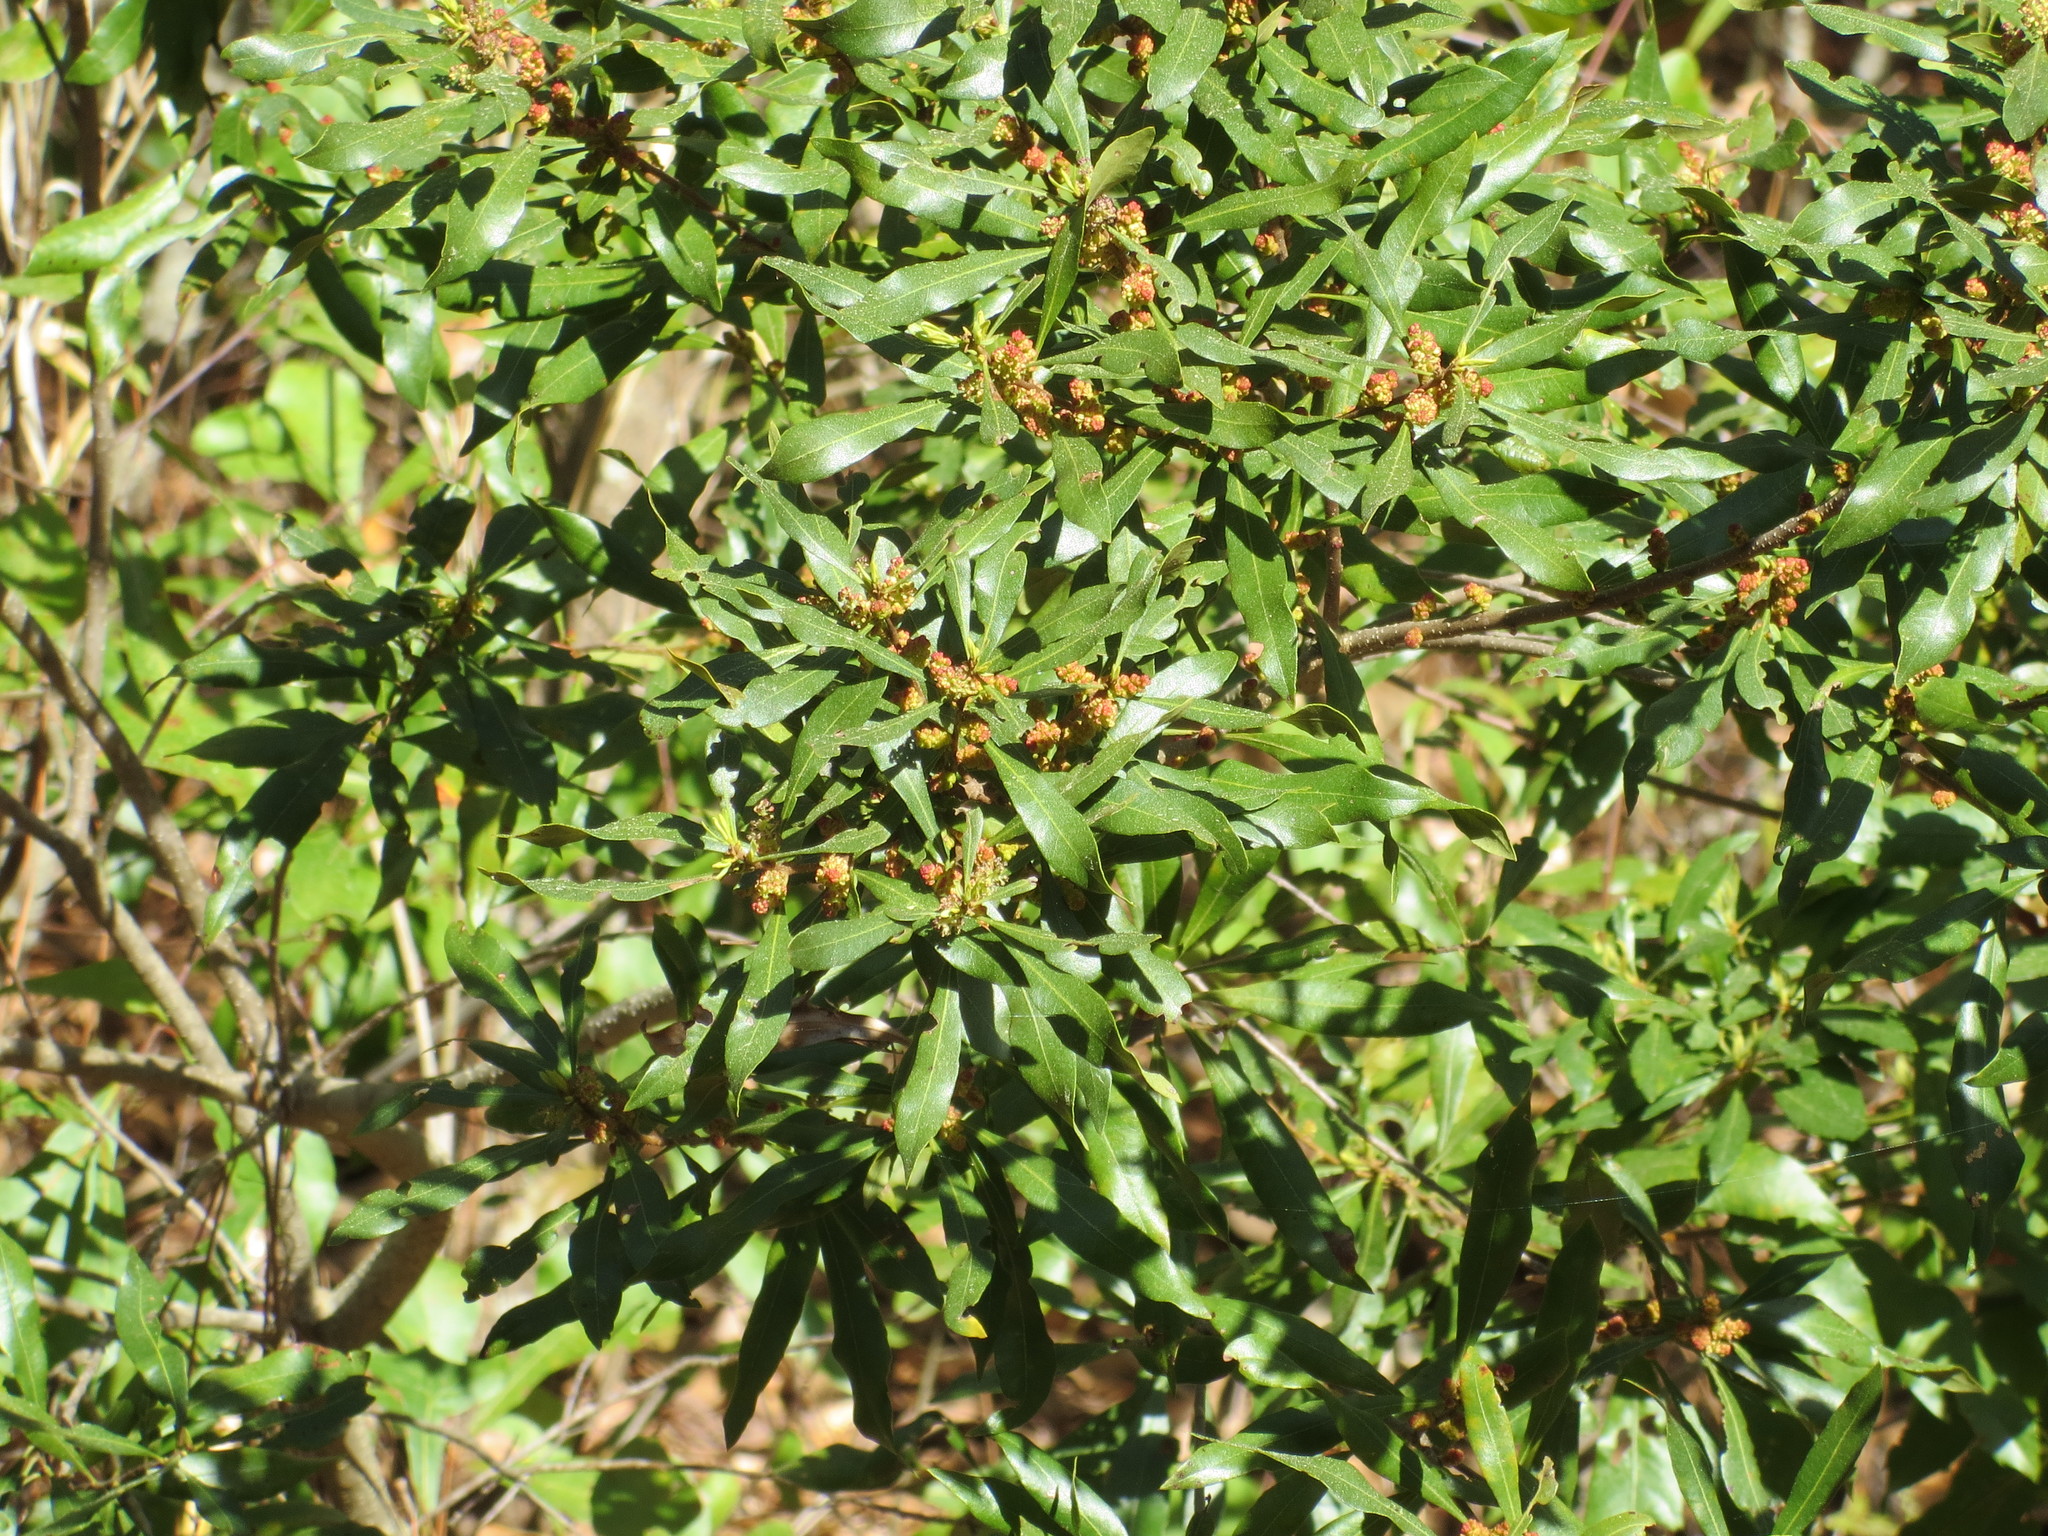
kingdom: Plantae
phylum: Tracheophyta
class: Magnoliopsida
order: Fagales
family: Myricaceae
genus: Morella
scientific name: Morella cerifera
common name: Wax myrtle
